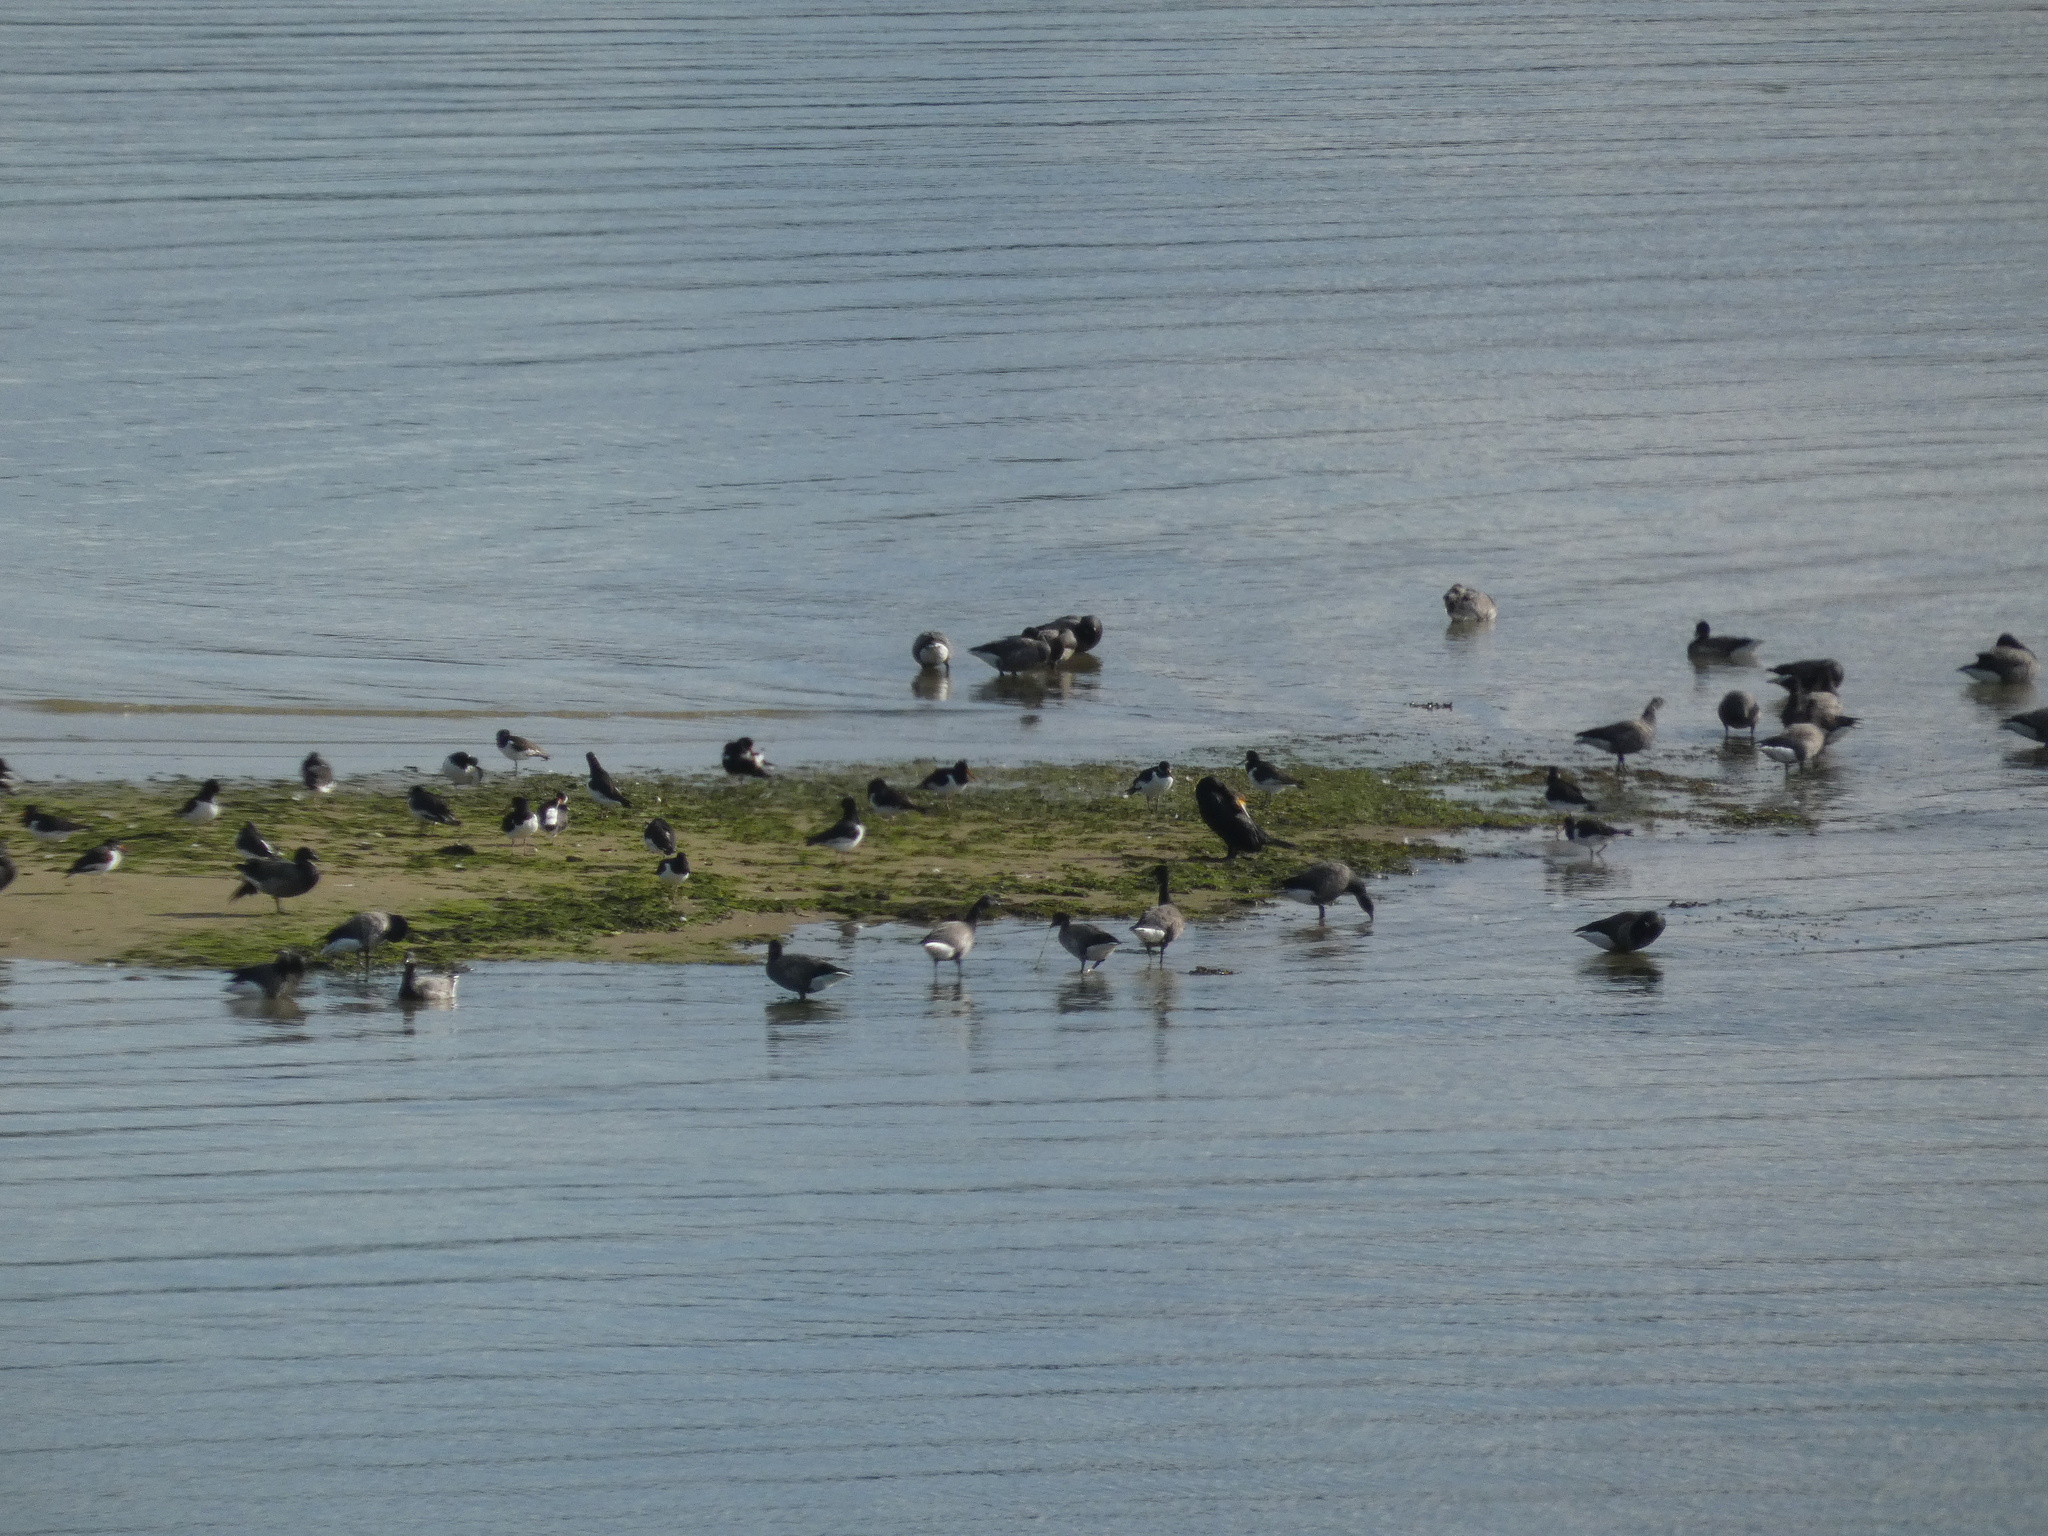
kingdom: Animalia
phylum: Chordata
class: Aves
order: Charadriiformes
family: Haematopodidae
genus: Haematopus
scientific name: Haematopus ostralegus
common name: Eurasian oystercatcher
